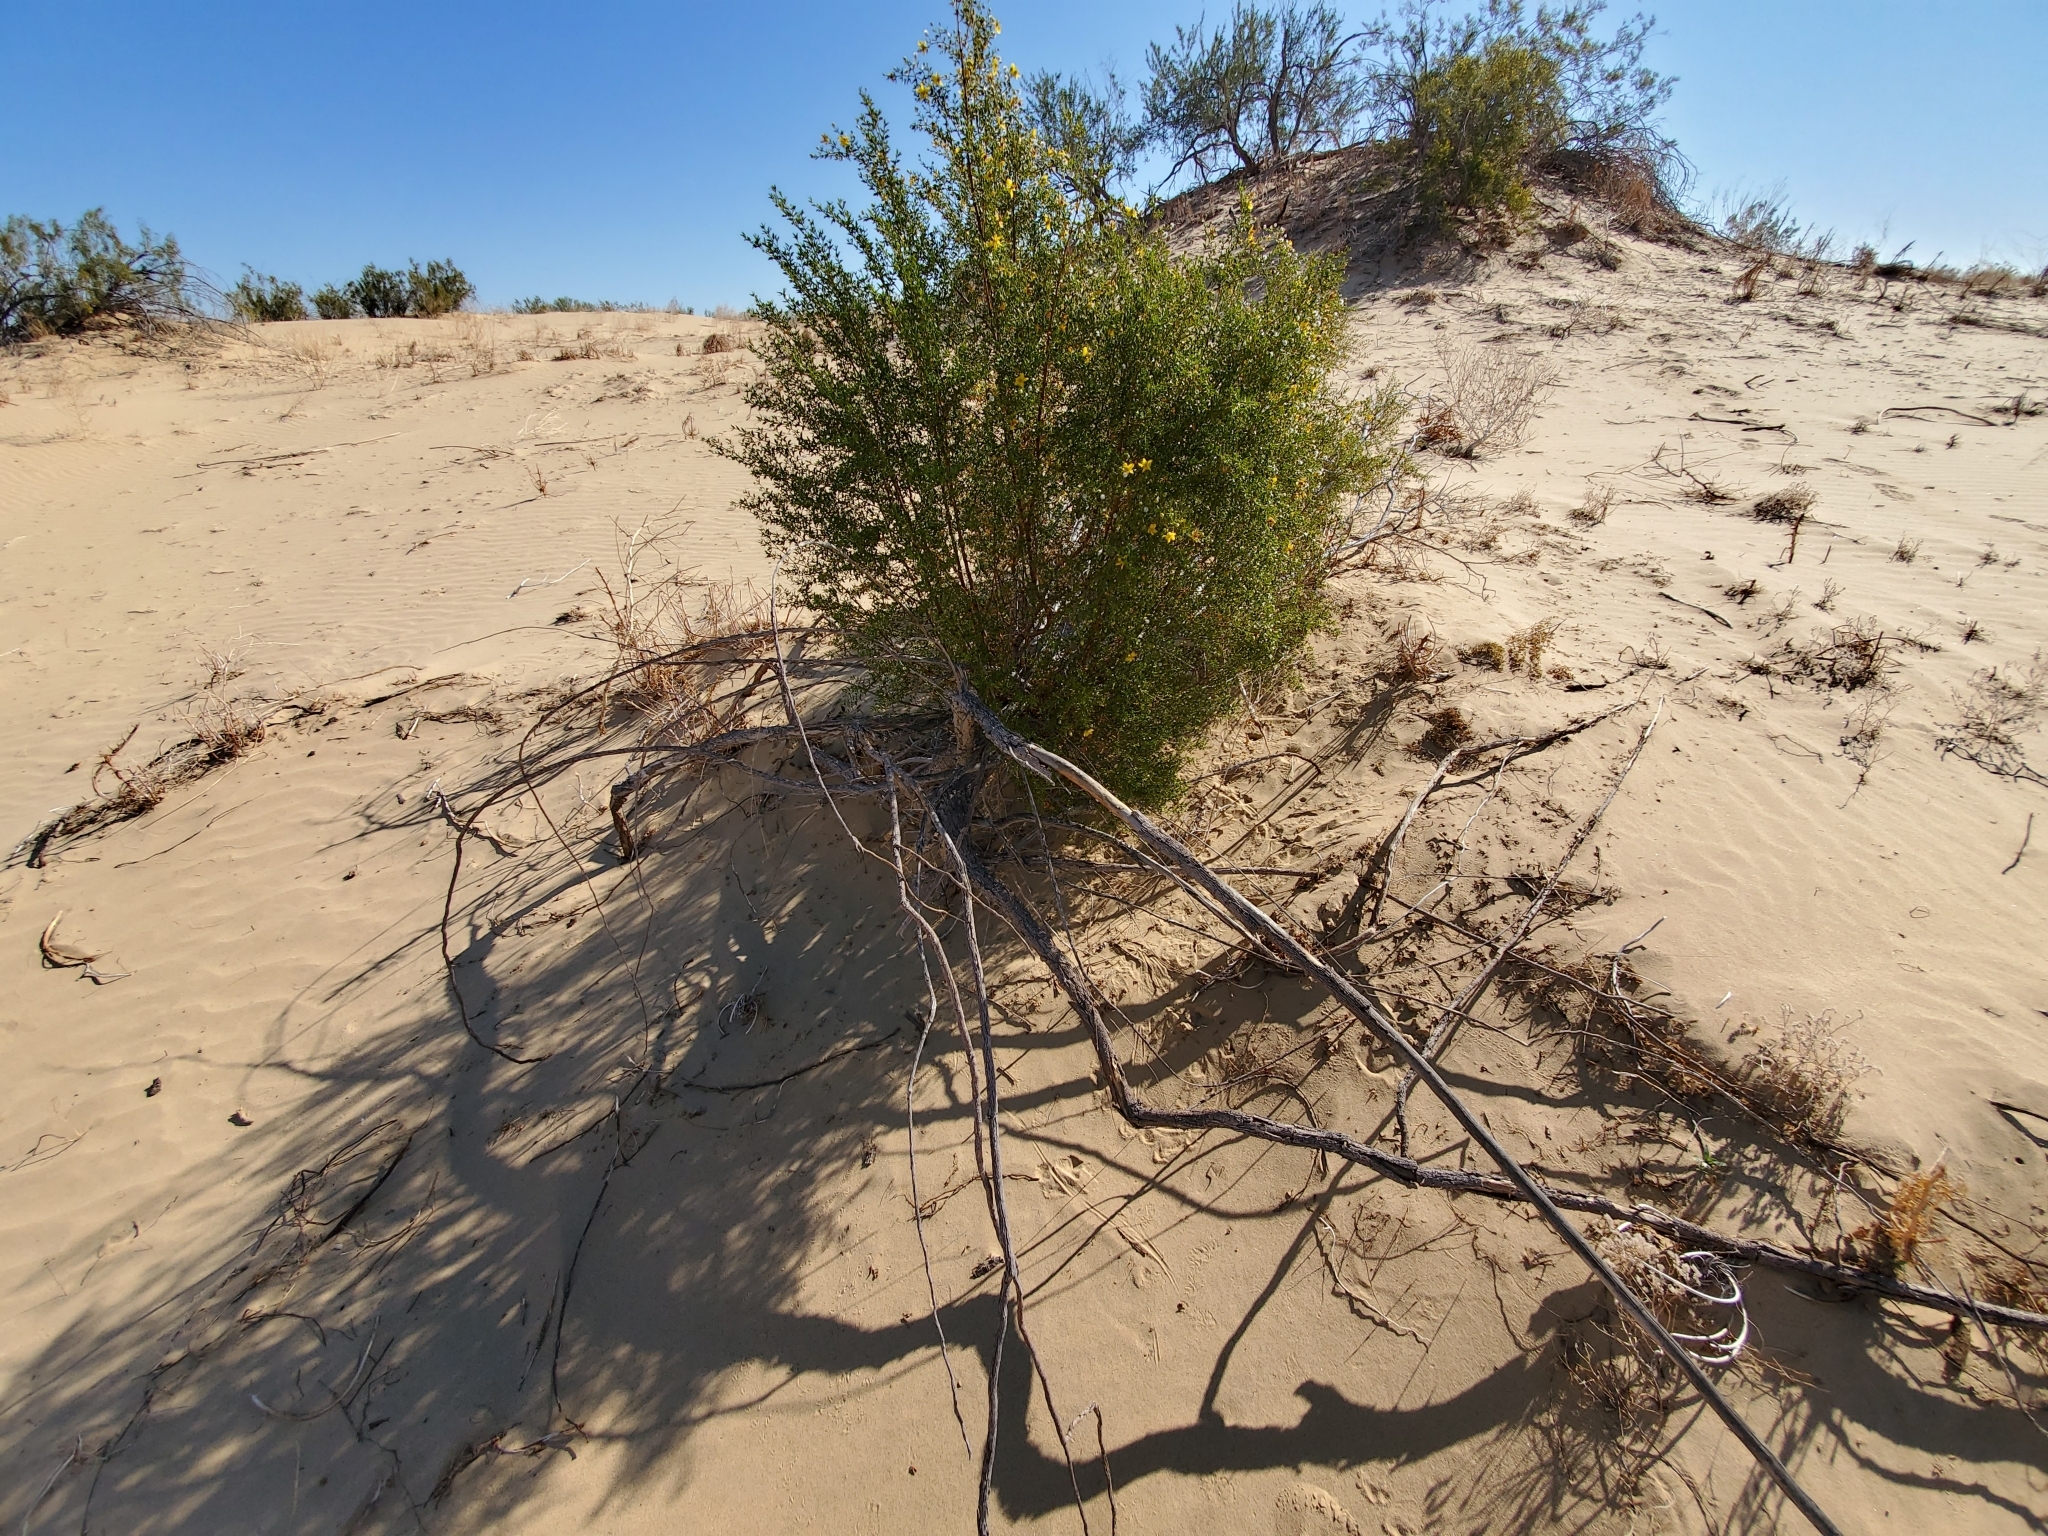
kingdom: Plantae
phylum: Tracheophyta
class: Magnoliopsida
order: Zygophyllales
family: Zygophyllaceae
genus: Larrea
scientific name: Larrea tridentata
